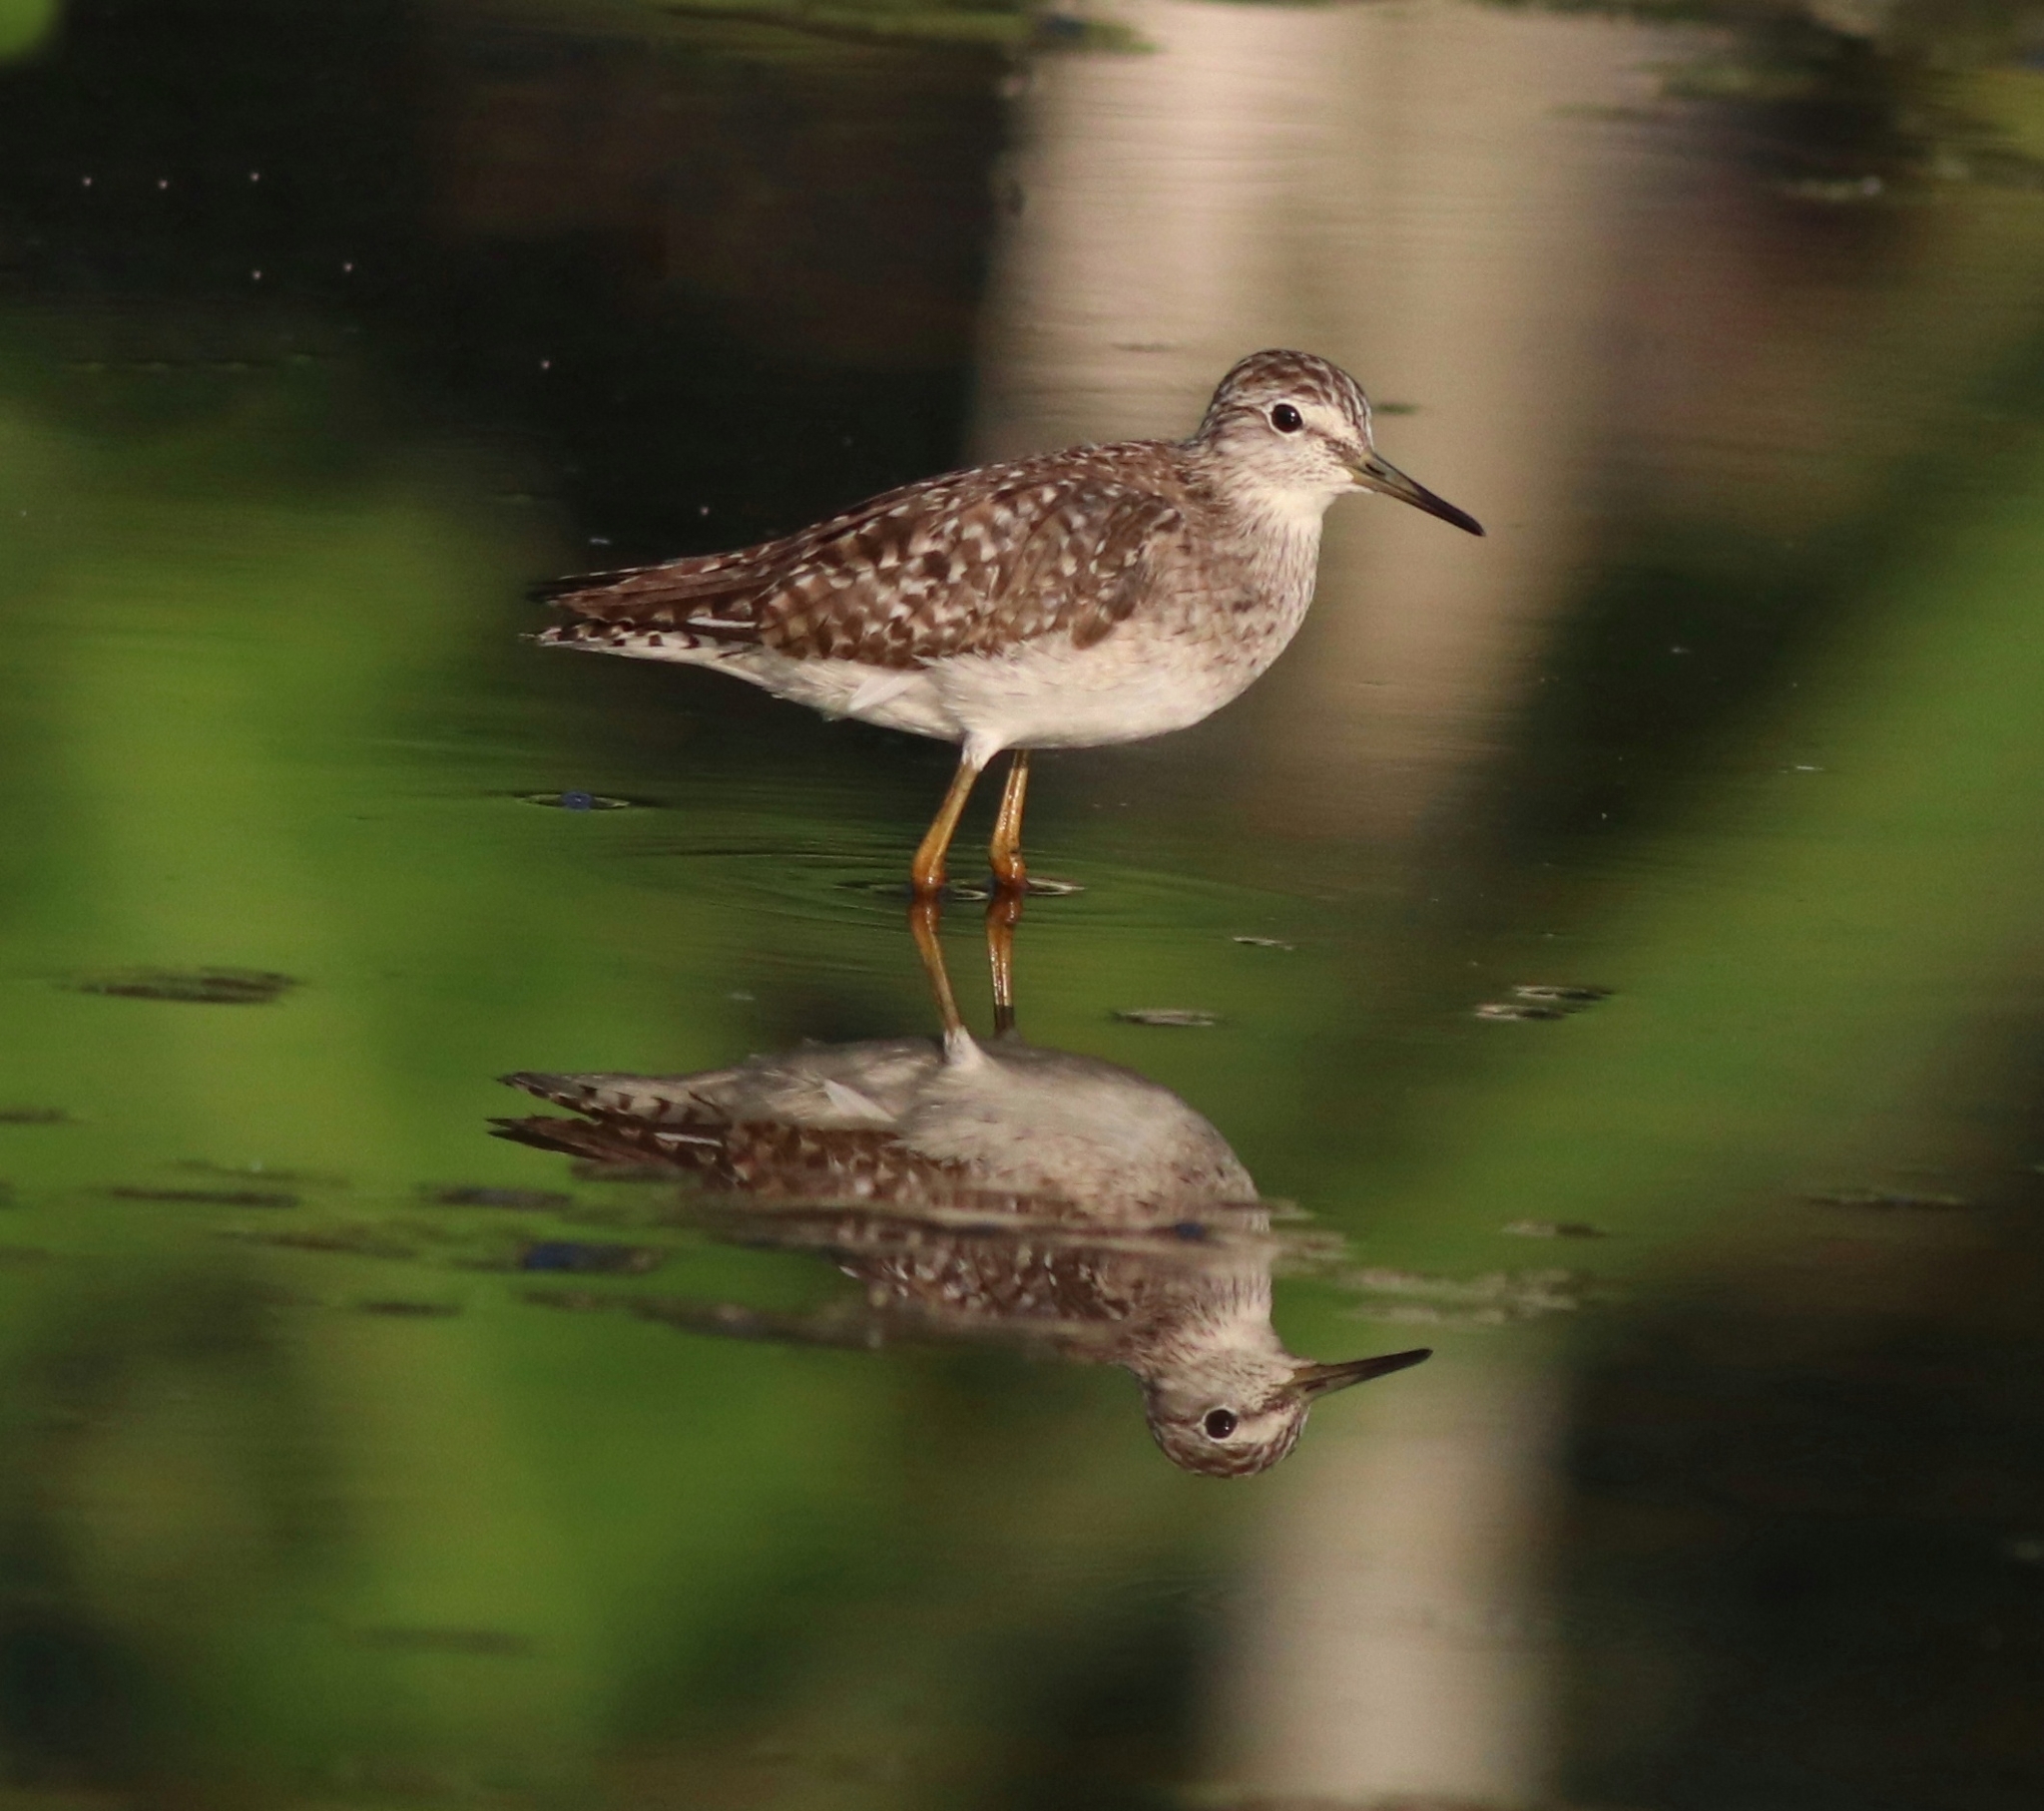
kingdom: Animalia
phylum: Chordata
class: Aves
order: Charadriiformes
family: Scolopacidae
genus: Tringa
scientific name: Tringa glareola
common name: Wood sandpiper
